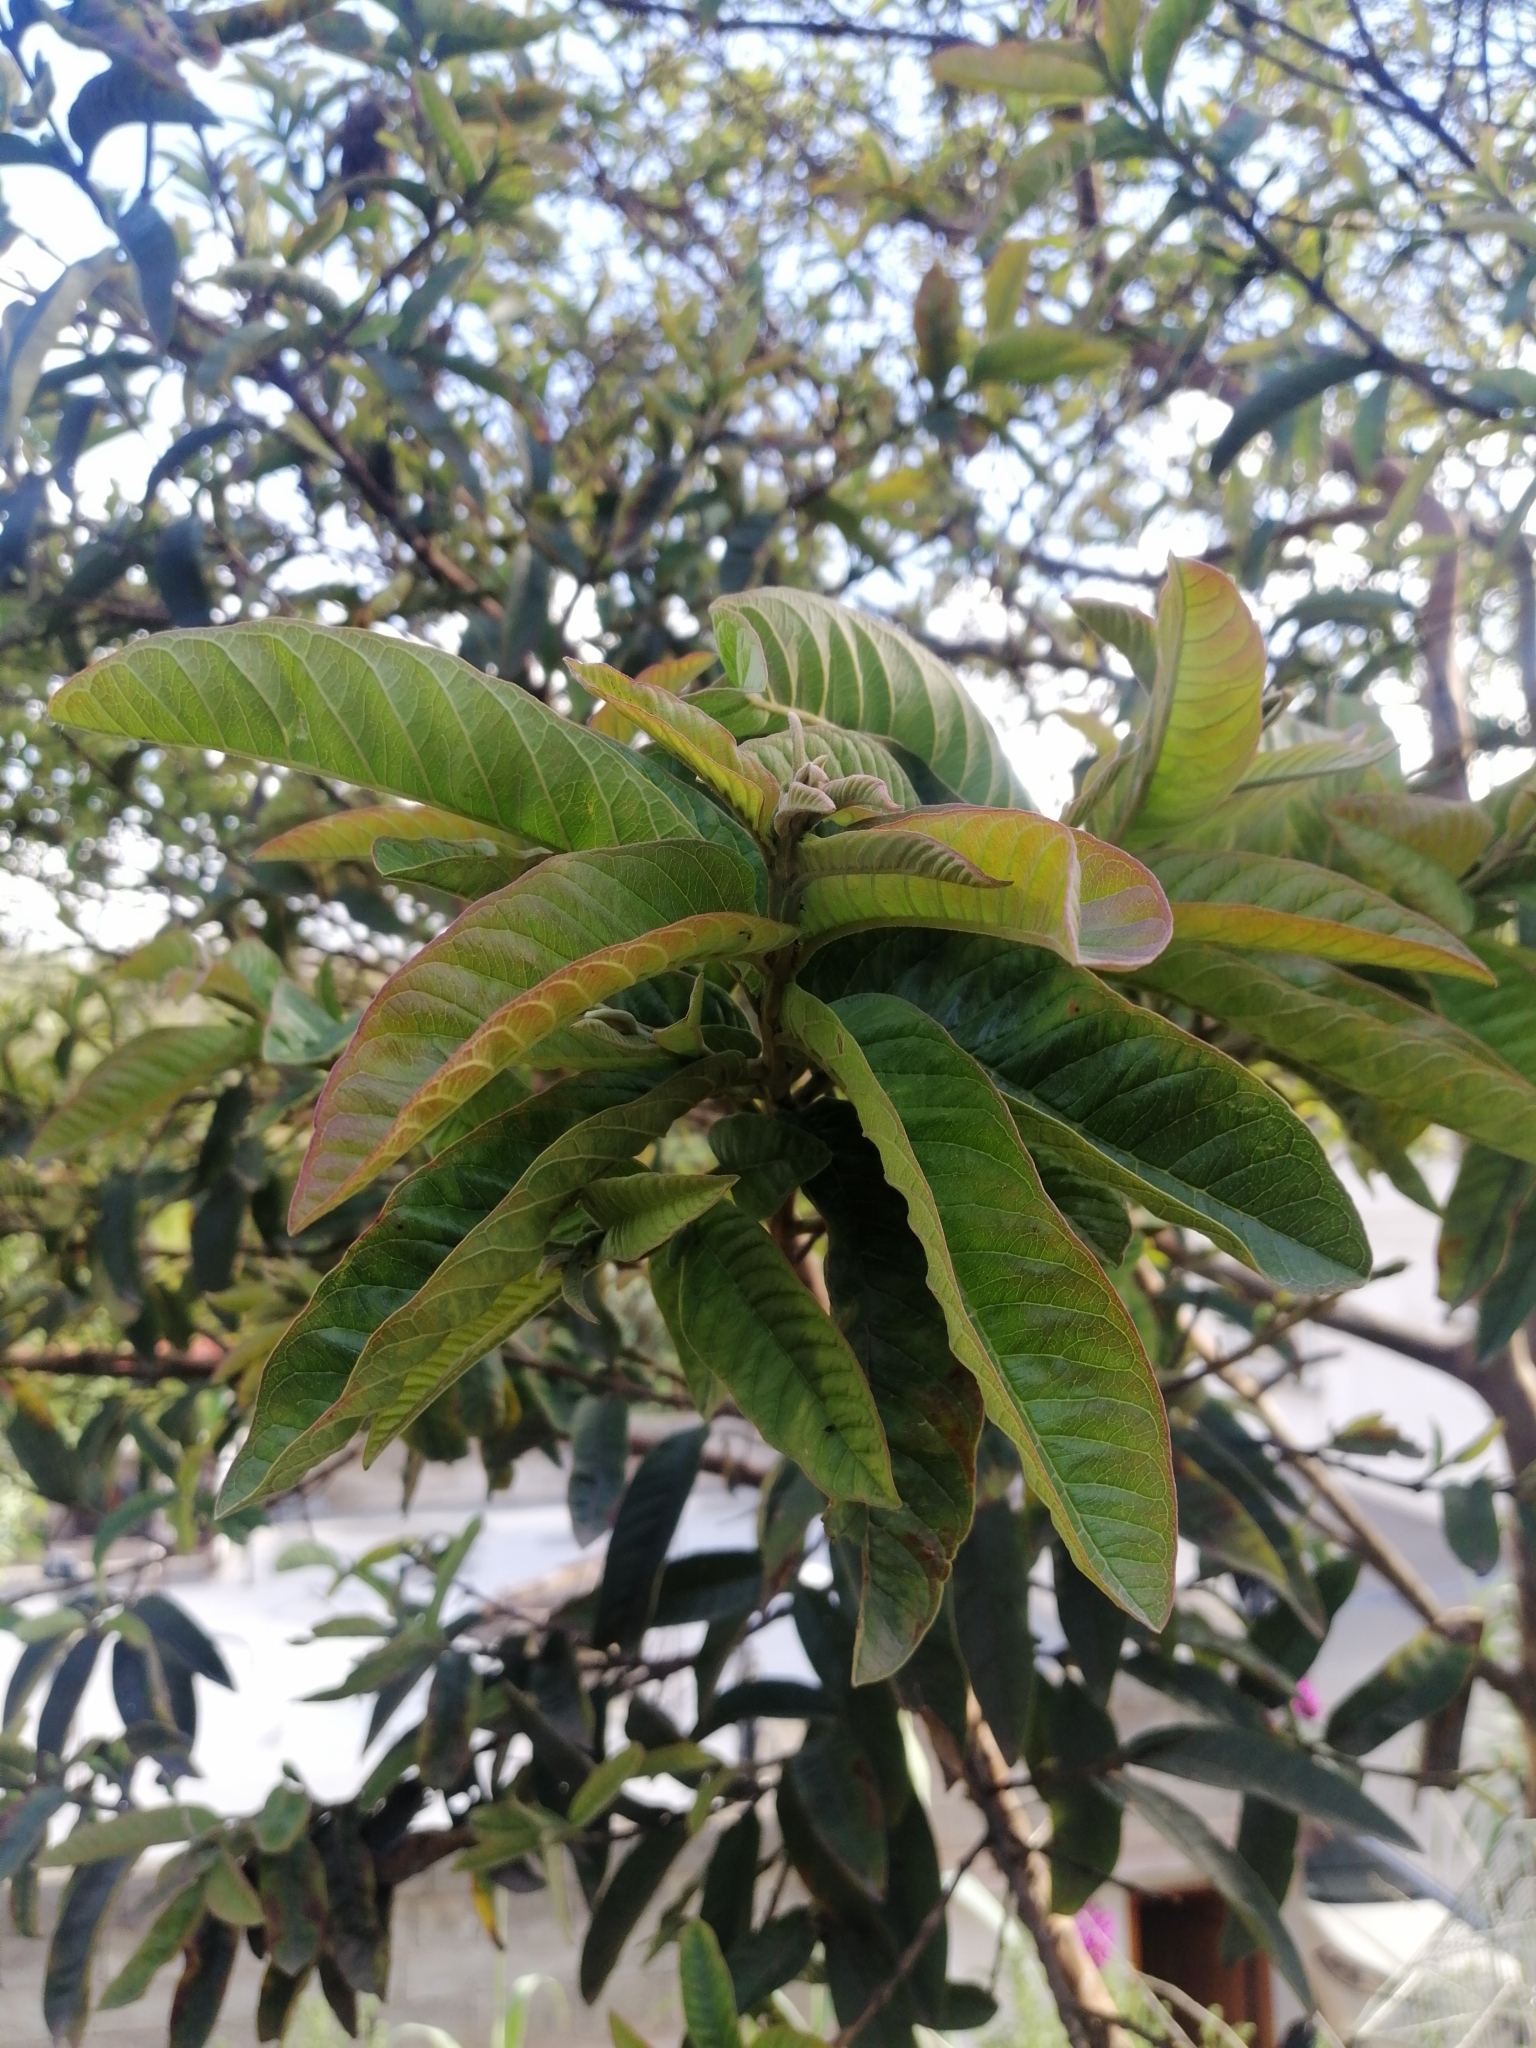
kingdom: Plantae
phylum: Tracheophyta
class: Magnoliopsida
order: Myrtales
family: Myrtaceae
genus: Psidium
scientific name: Psidium guajava
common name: Guava
